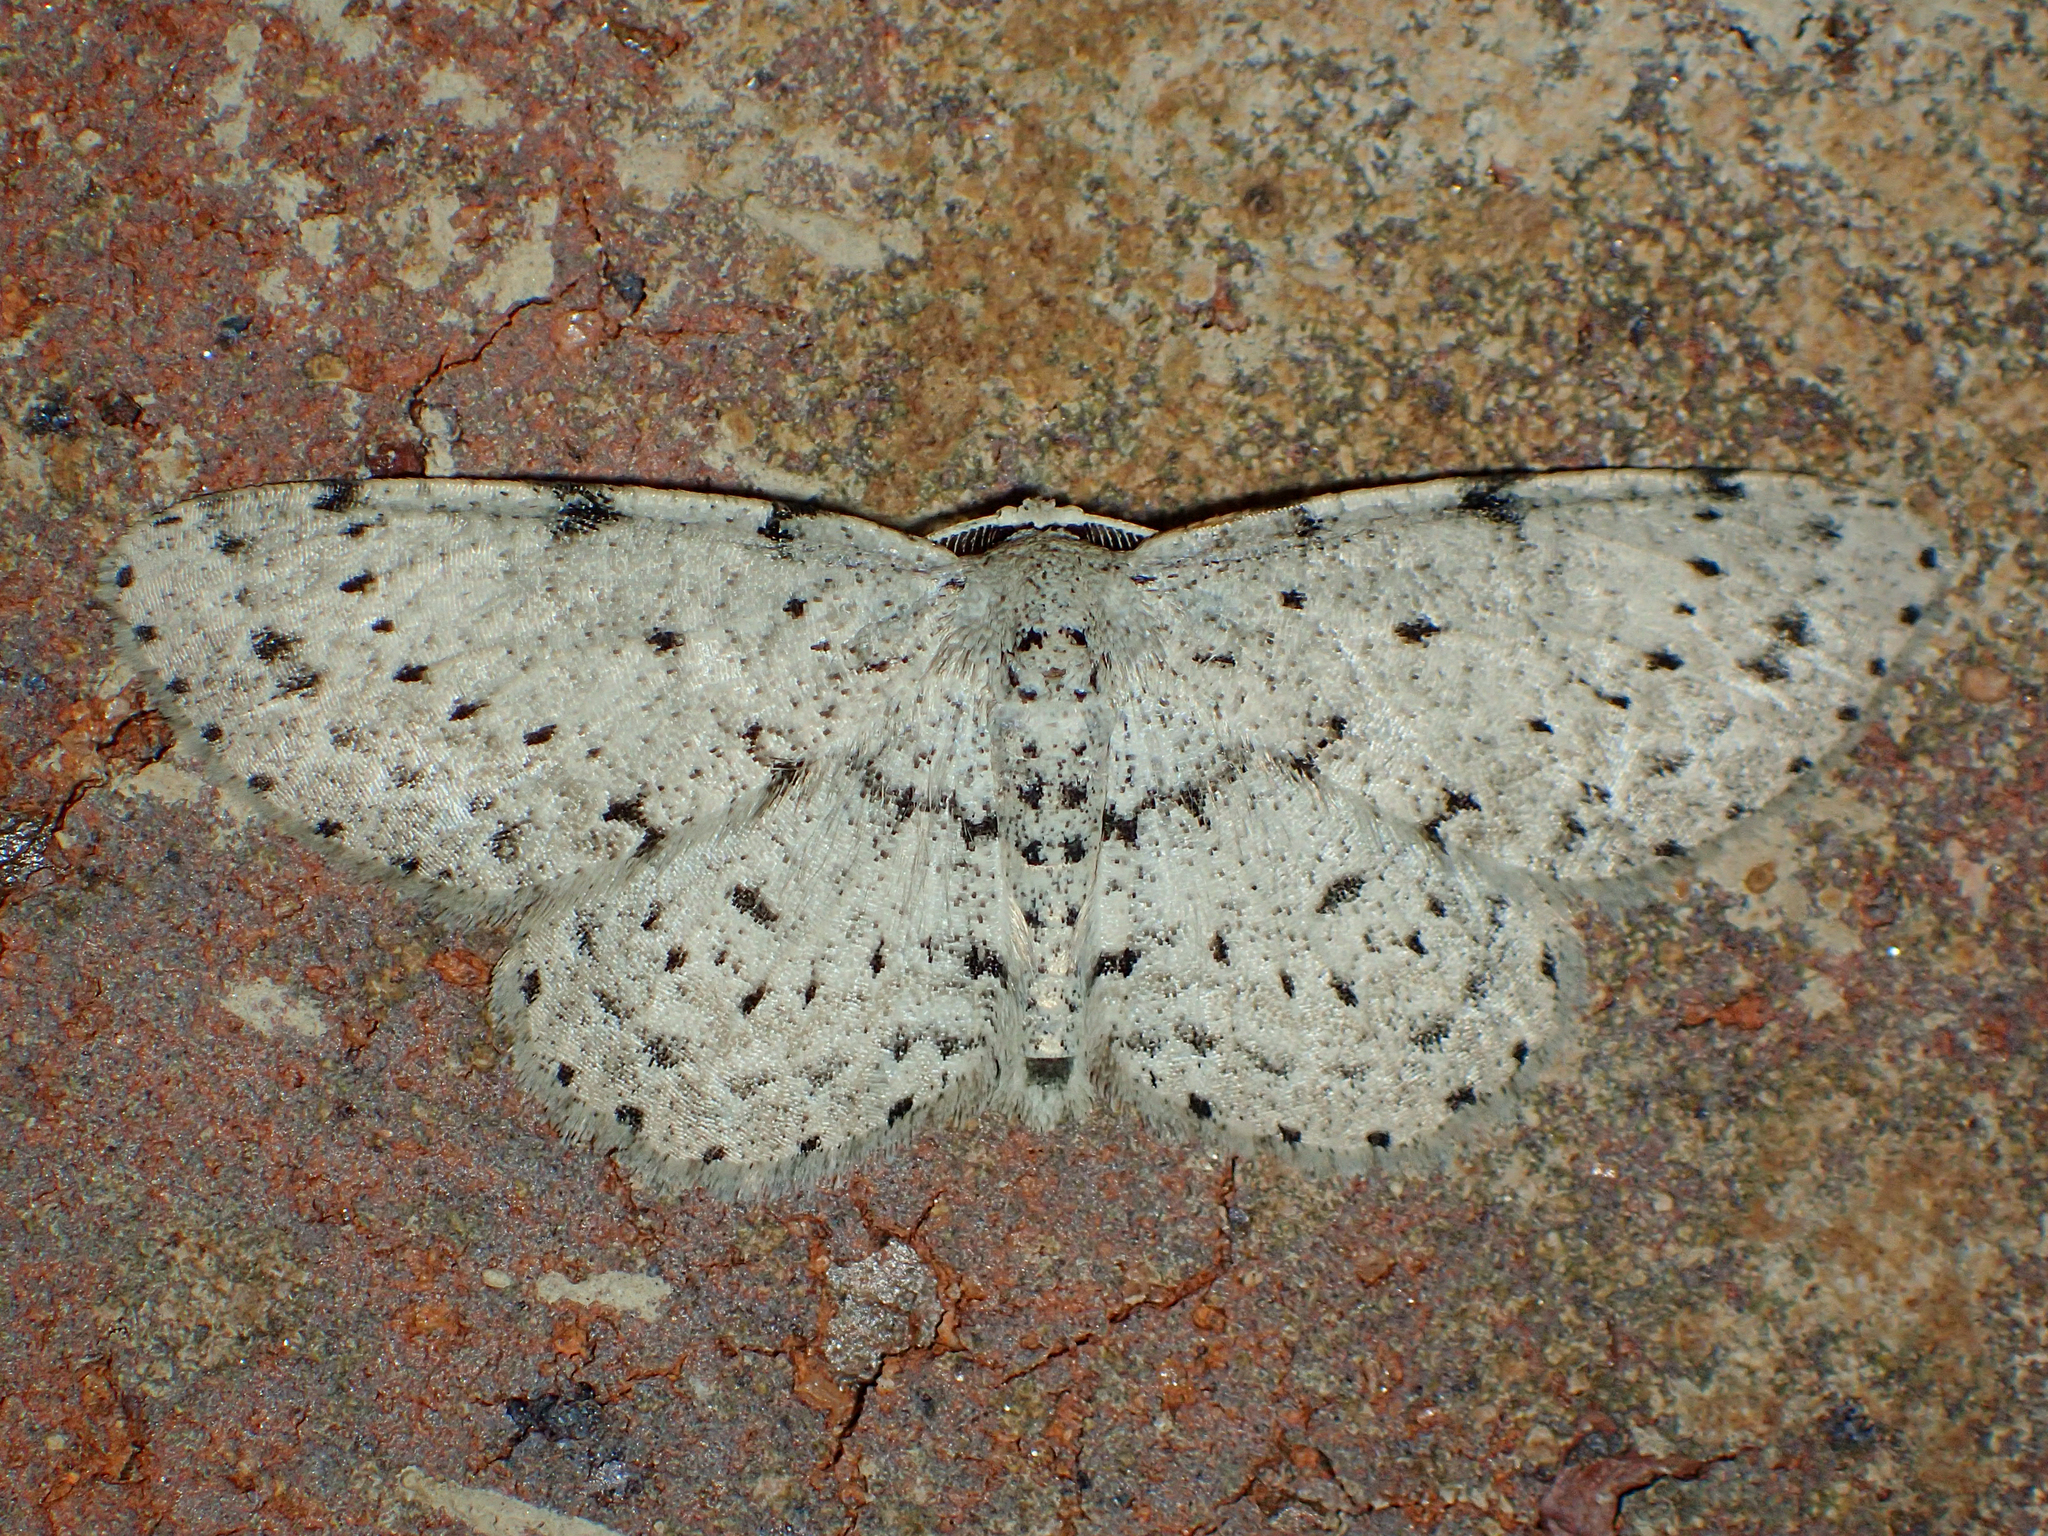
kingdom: Animalia
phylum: Arthropoda
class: Insecta
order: Lepidoptera
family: Geometridae
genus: Glena
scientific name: Glena cribrataria
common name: Dotted gray
